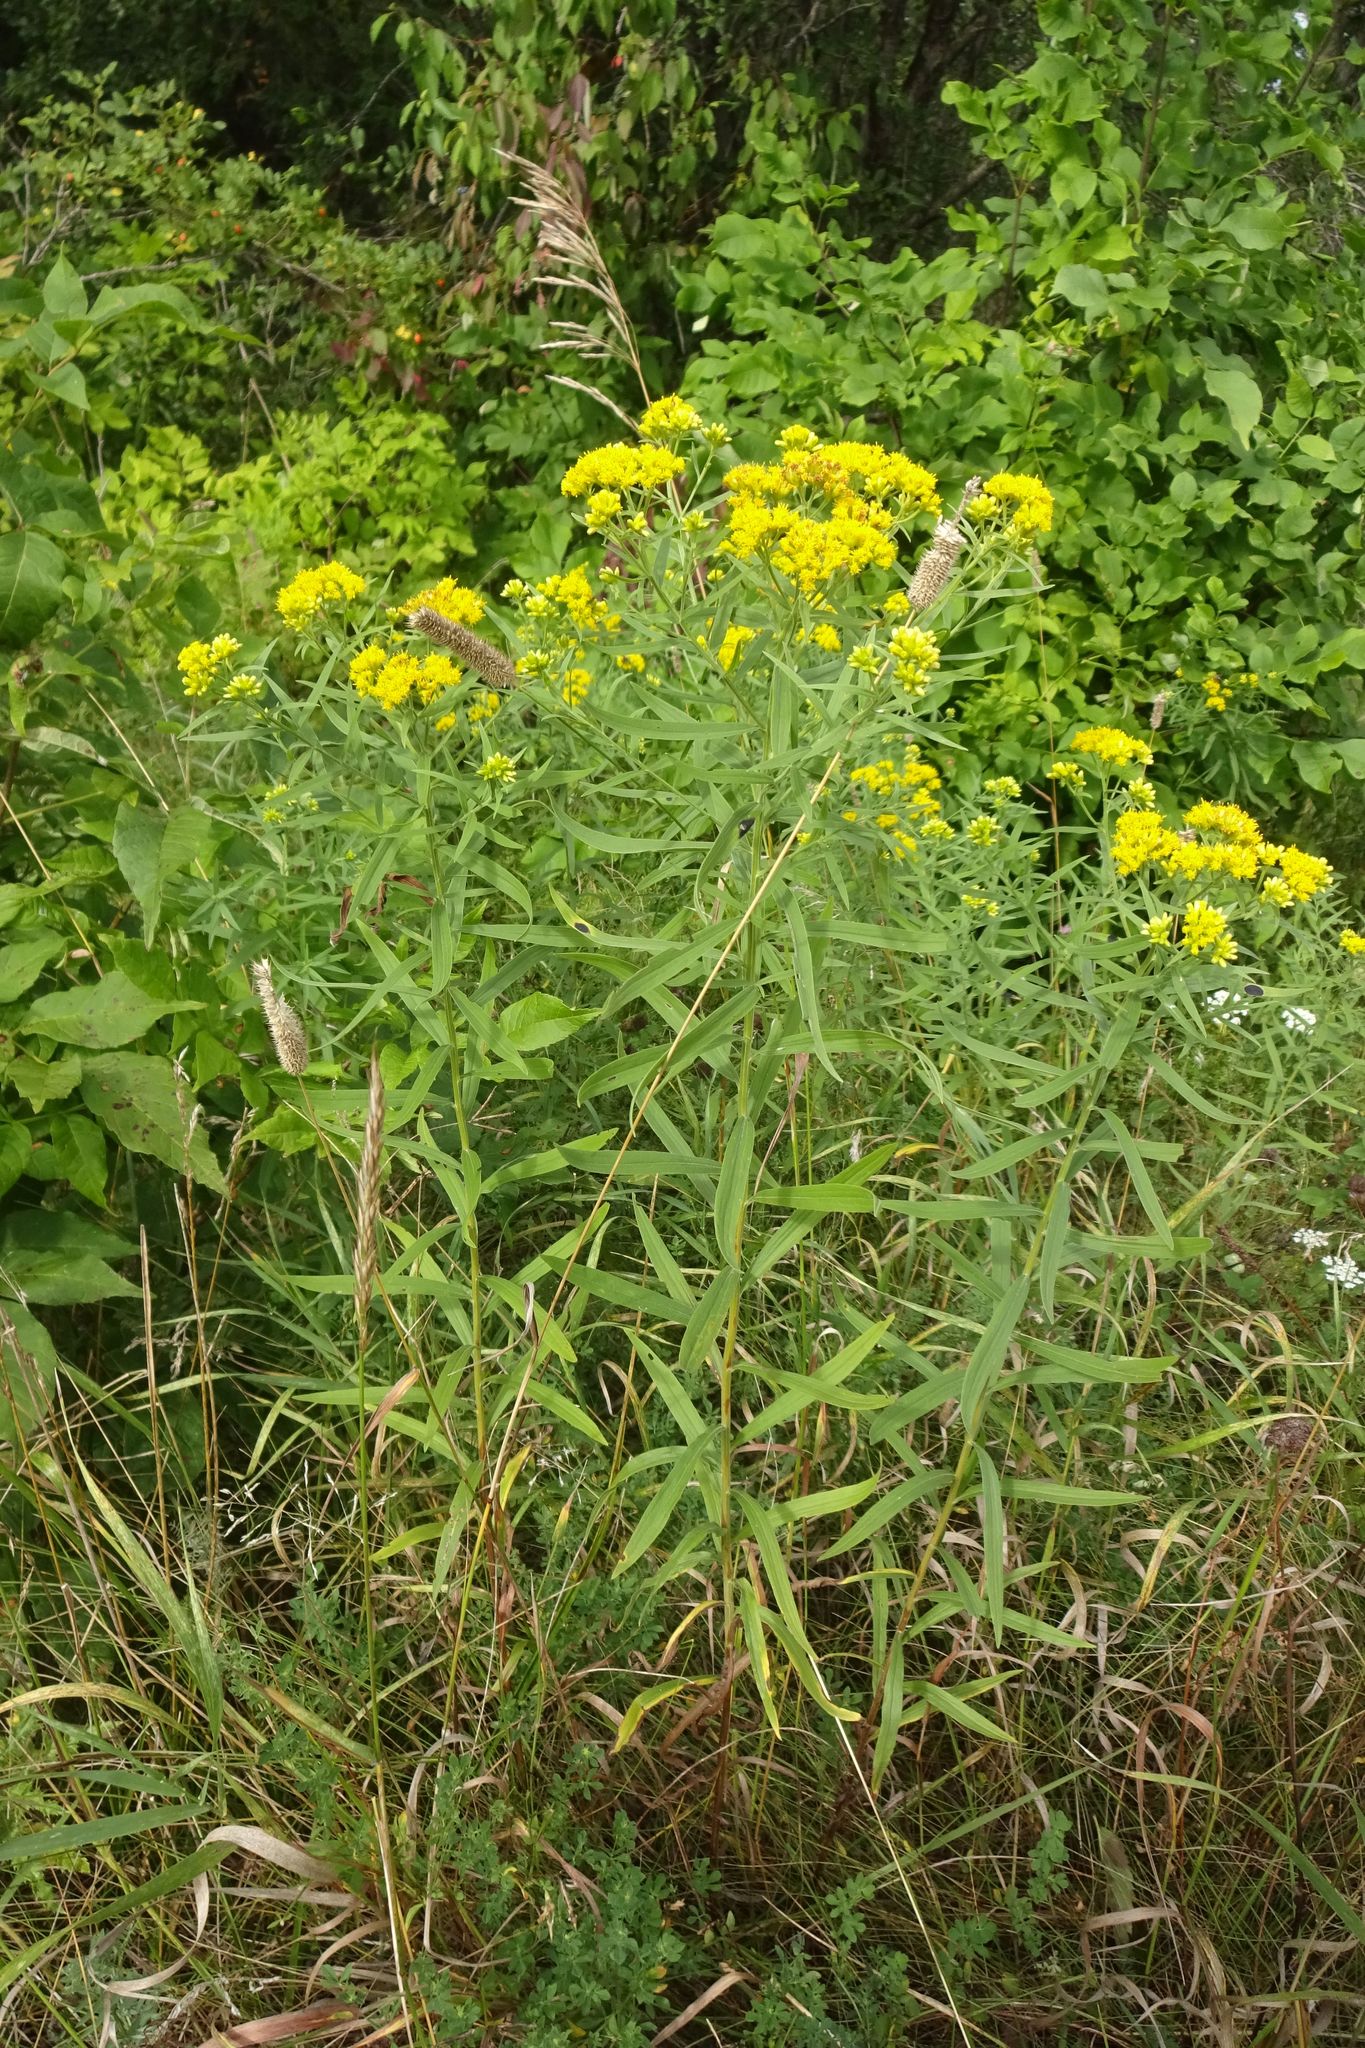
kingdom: Plantae
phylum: Tracheophyta
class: Magnoliopsida
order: Asterales
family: Asteraceae
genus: Euthamia
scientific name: Euthamia graminifolia
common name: Common goldentop
